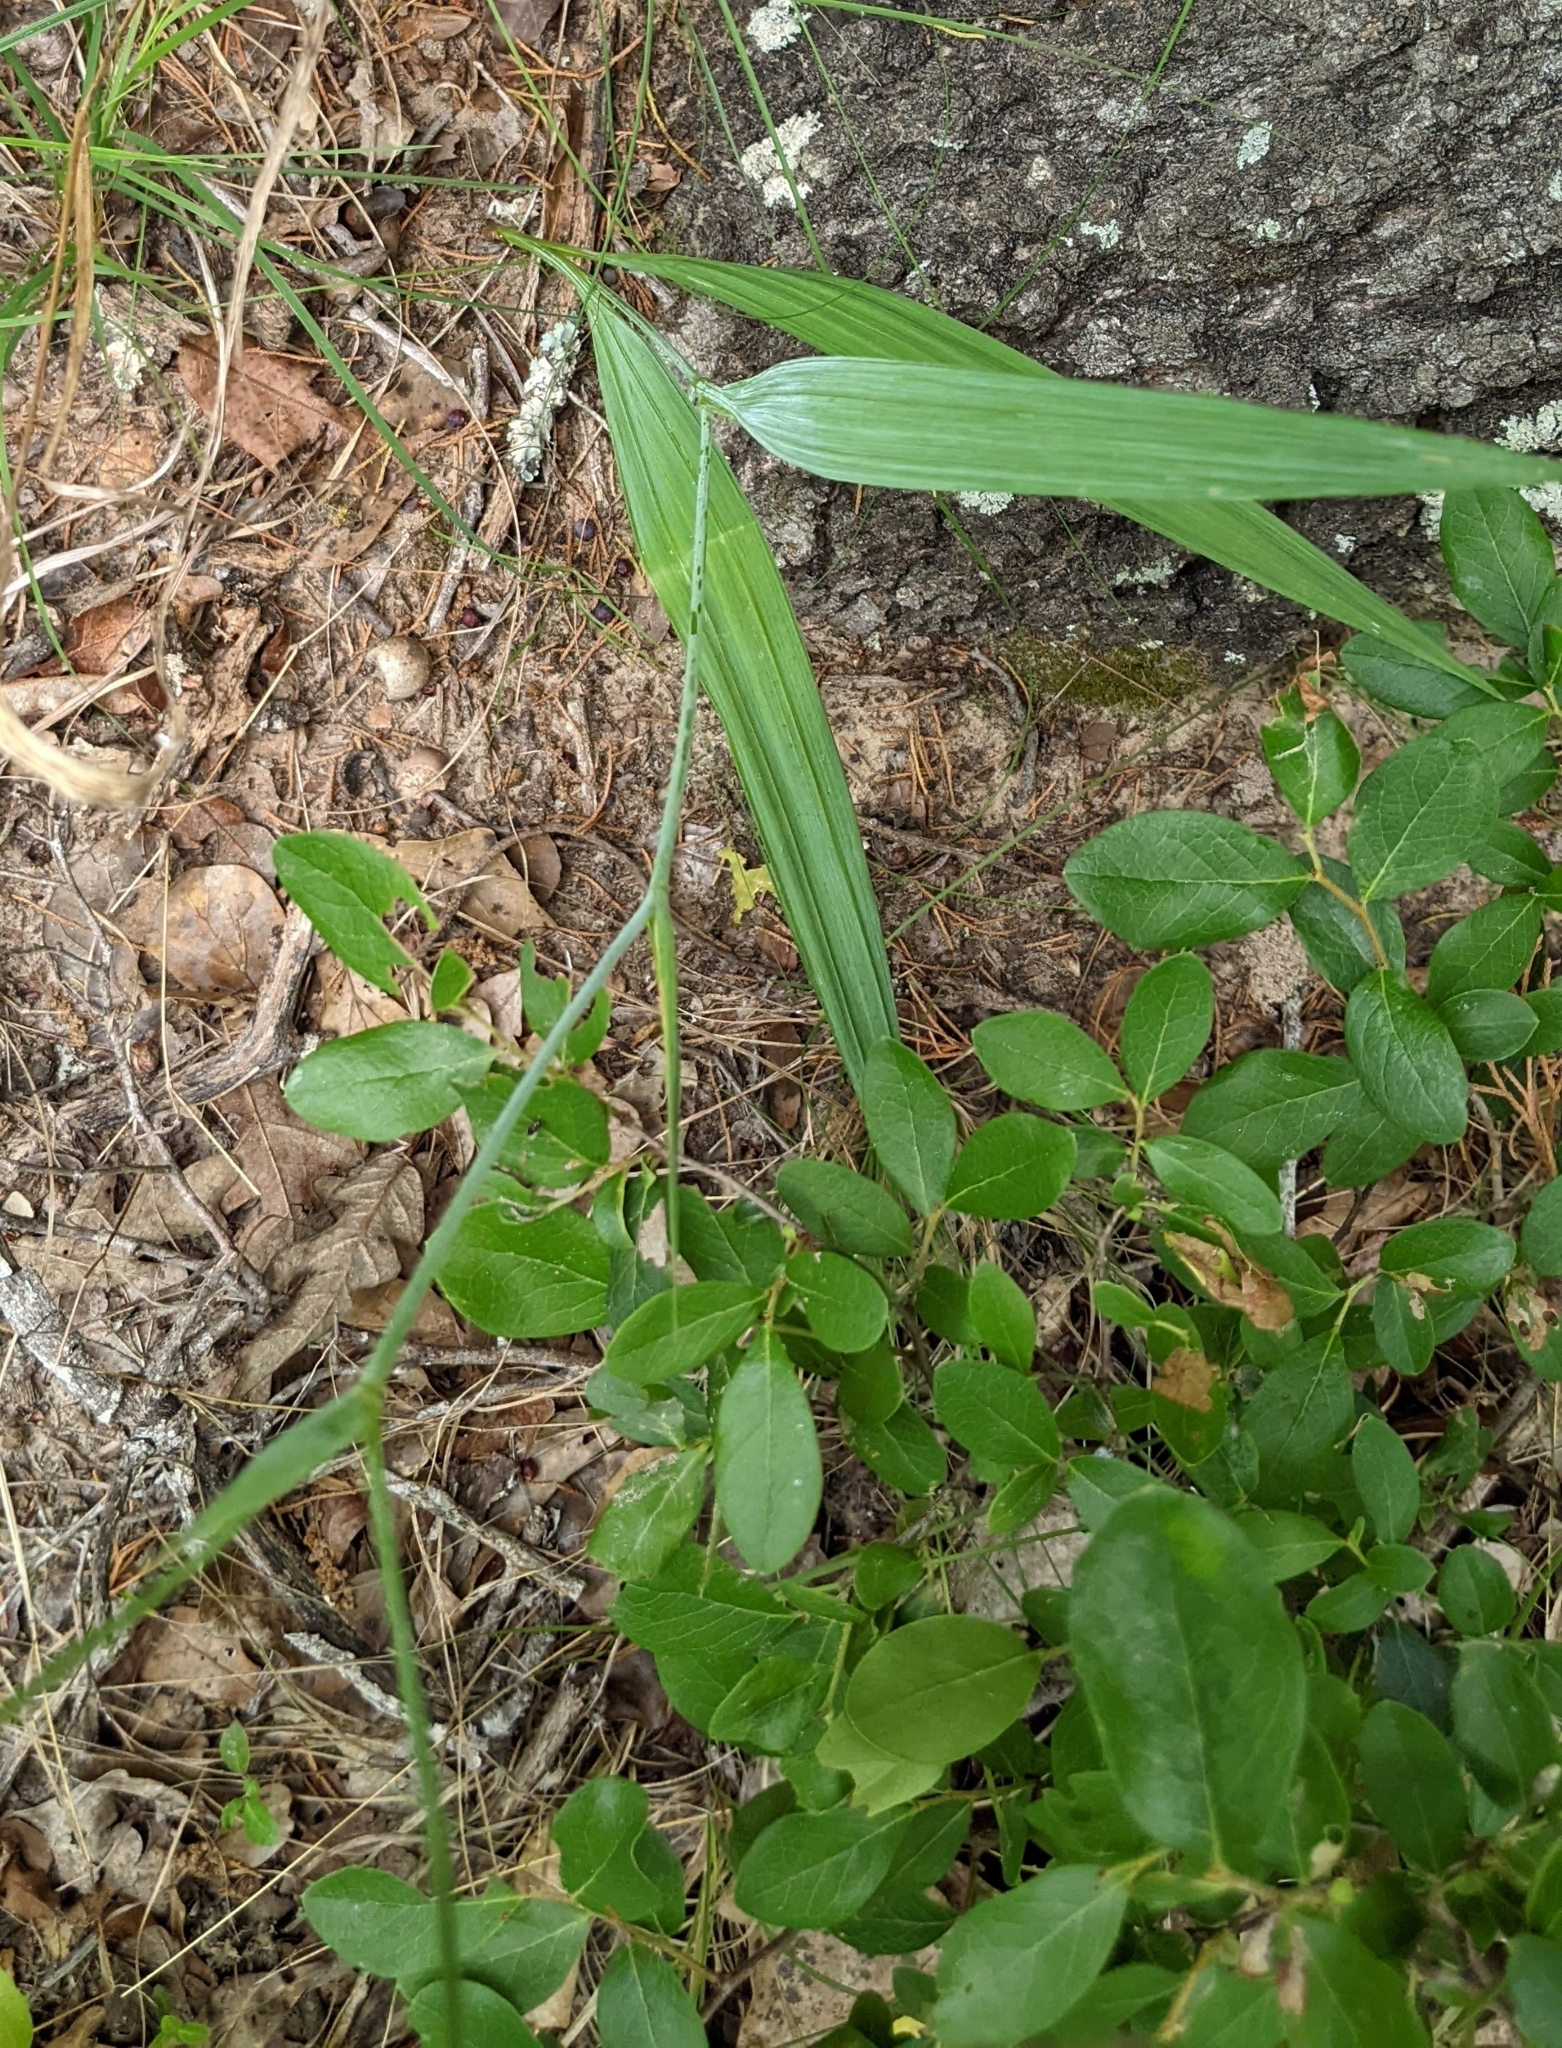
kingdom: Plantae
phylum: Tracheophyta
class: Liliopsida
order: Asparagales
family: Iridaceae
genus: Alophia
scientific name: Alophia drummondii
